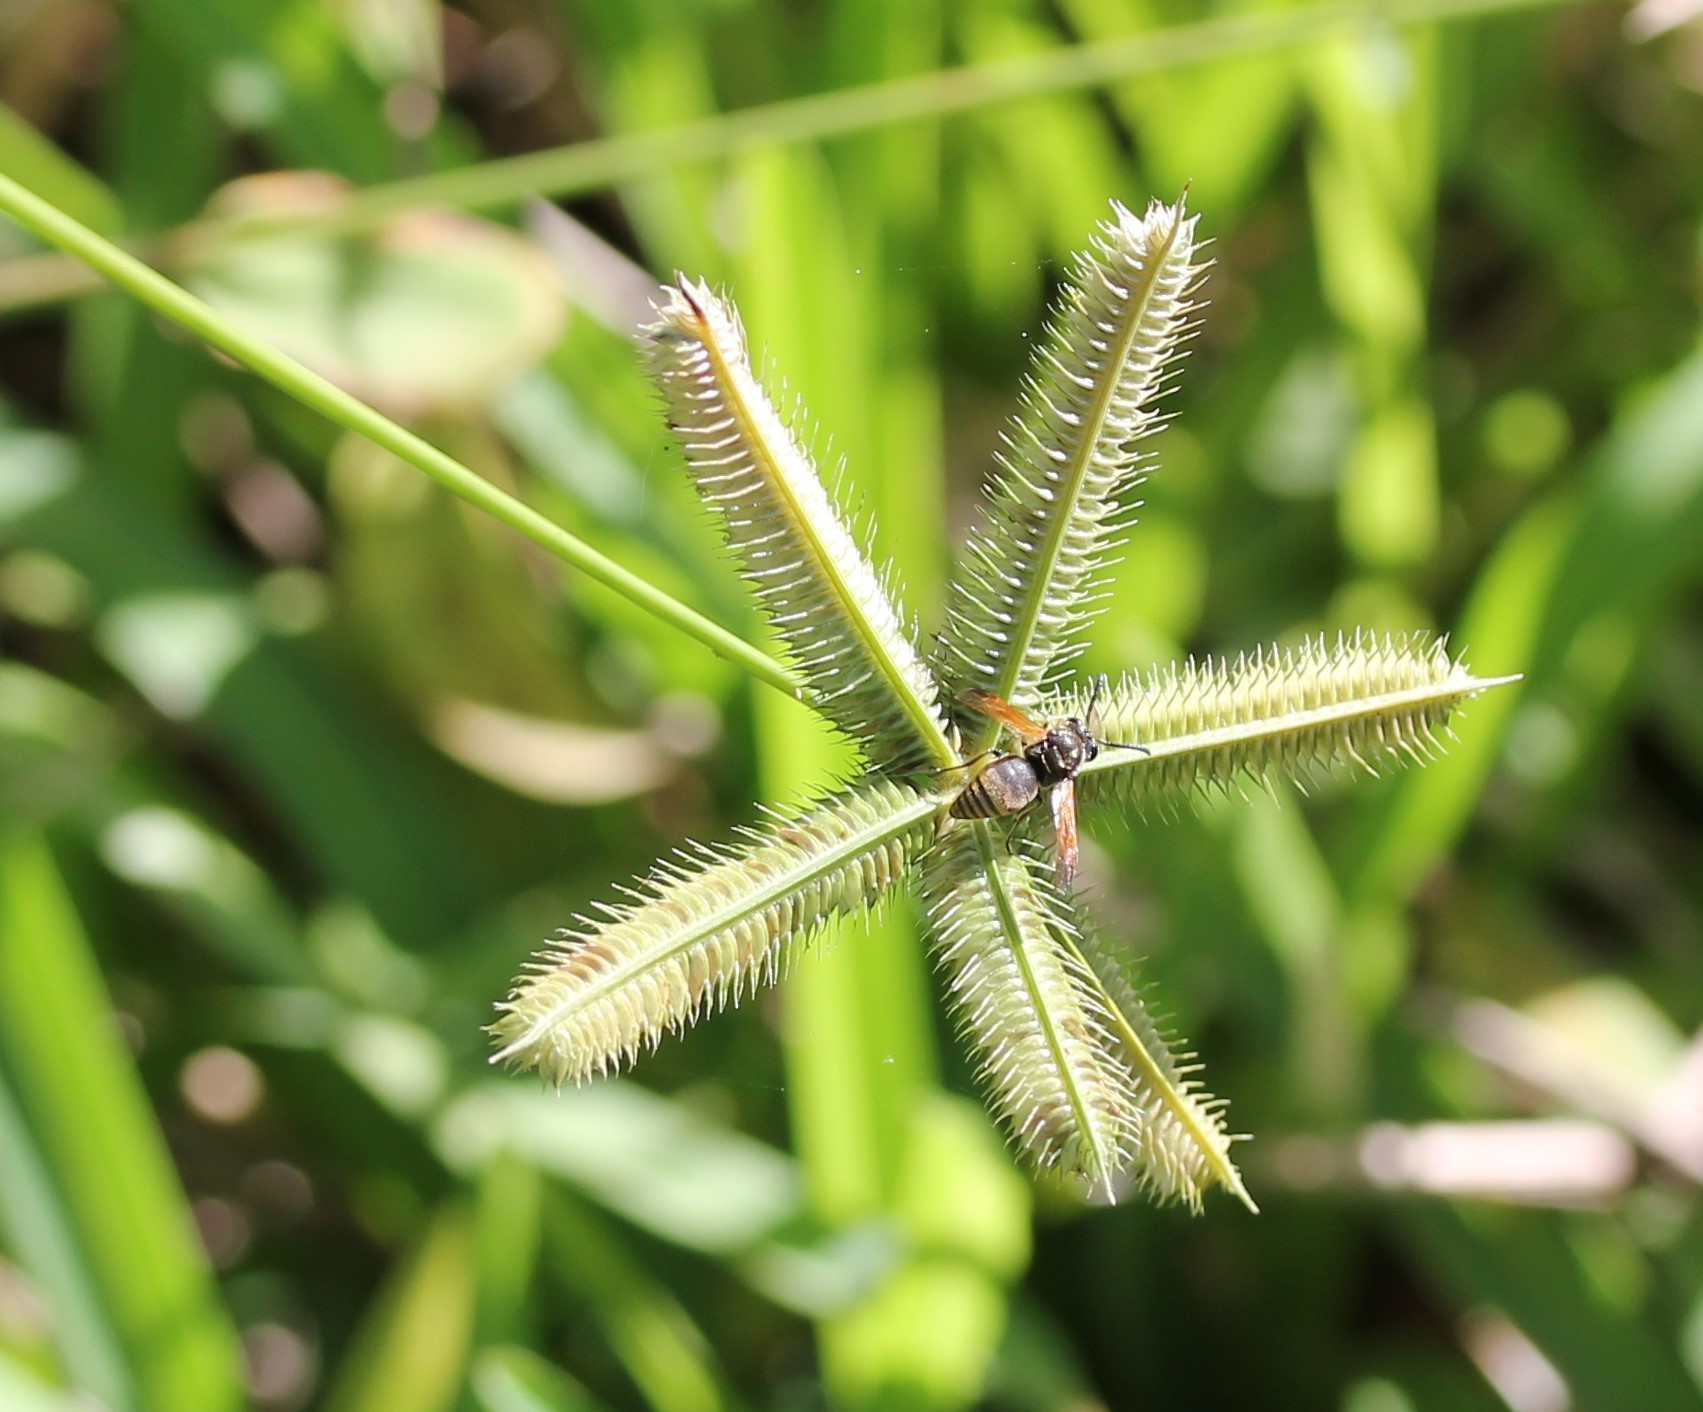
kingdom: Plantae
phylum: Tracheophyta
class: Liliopsida
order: Poales
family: Poaceae
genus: Dactyloctenium
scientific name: Dactyloctenium aegyptium
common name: Egyptian grass
